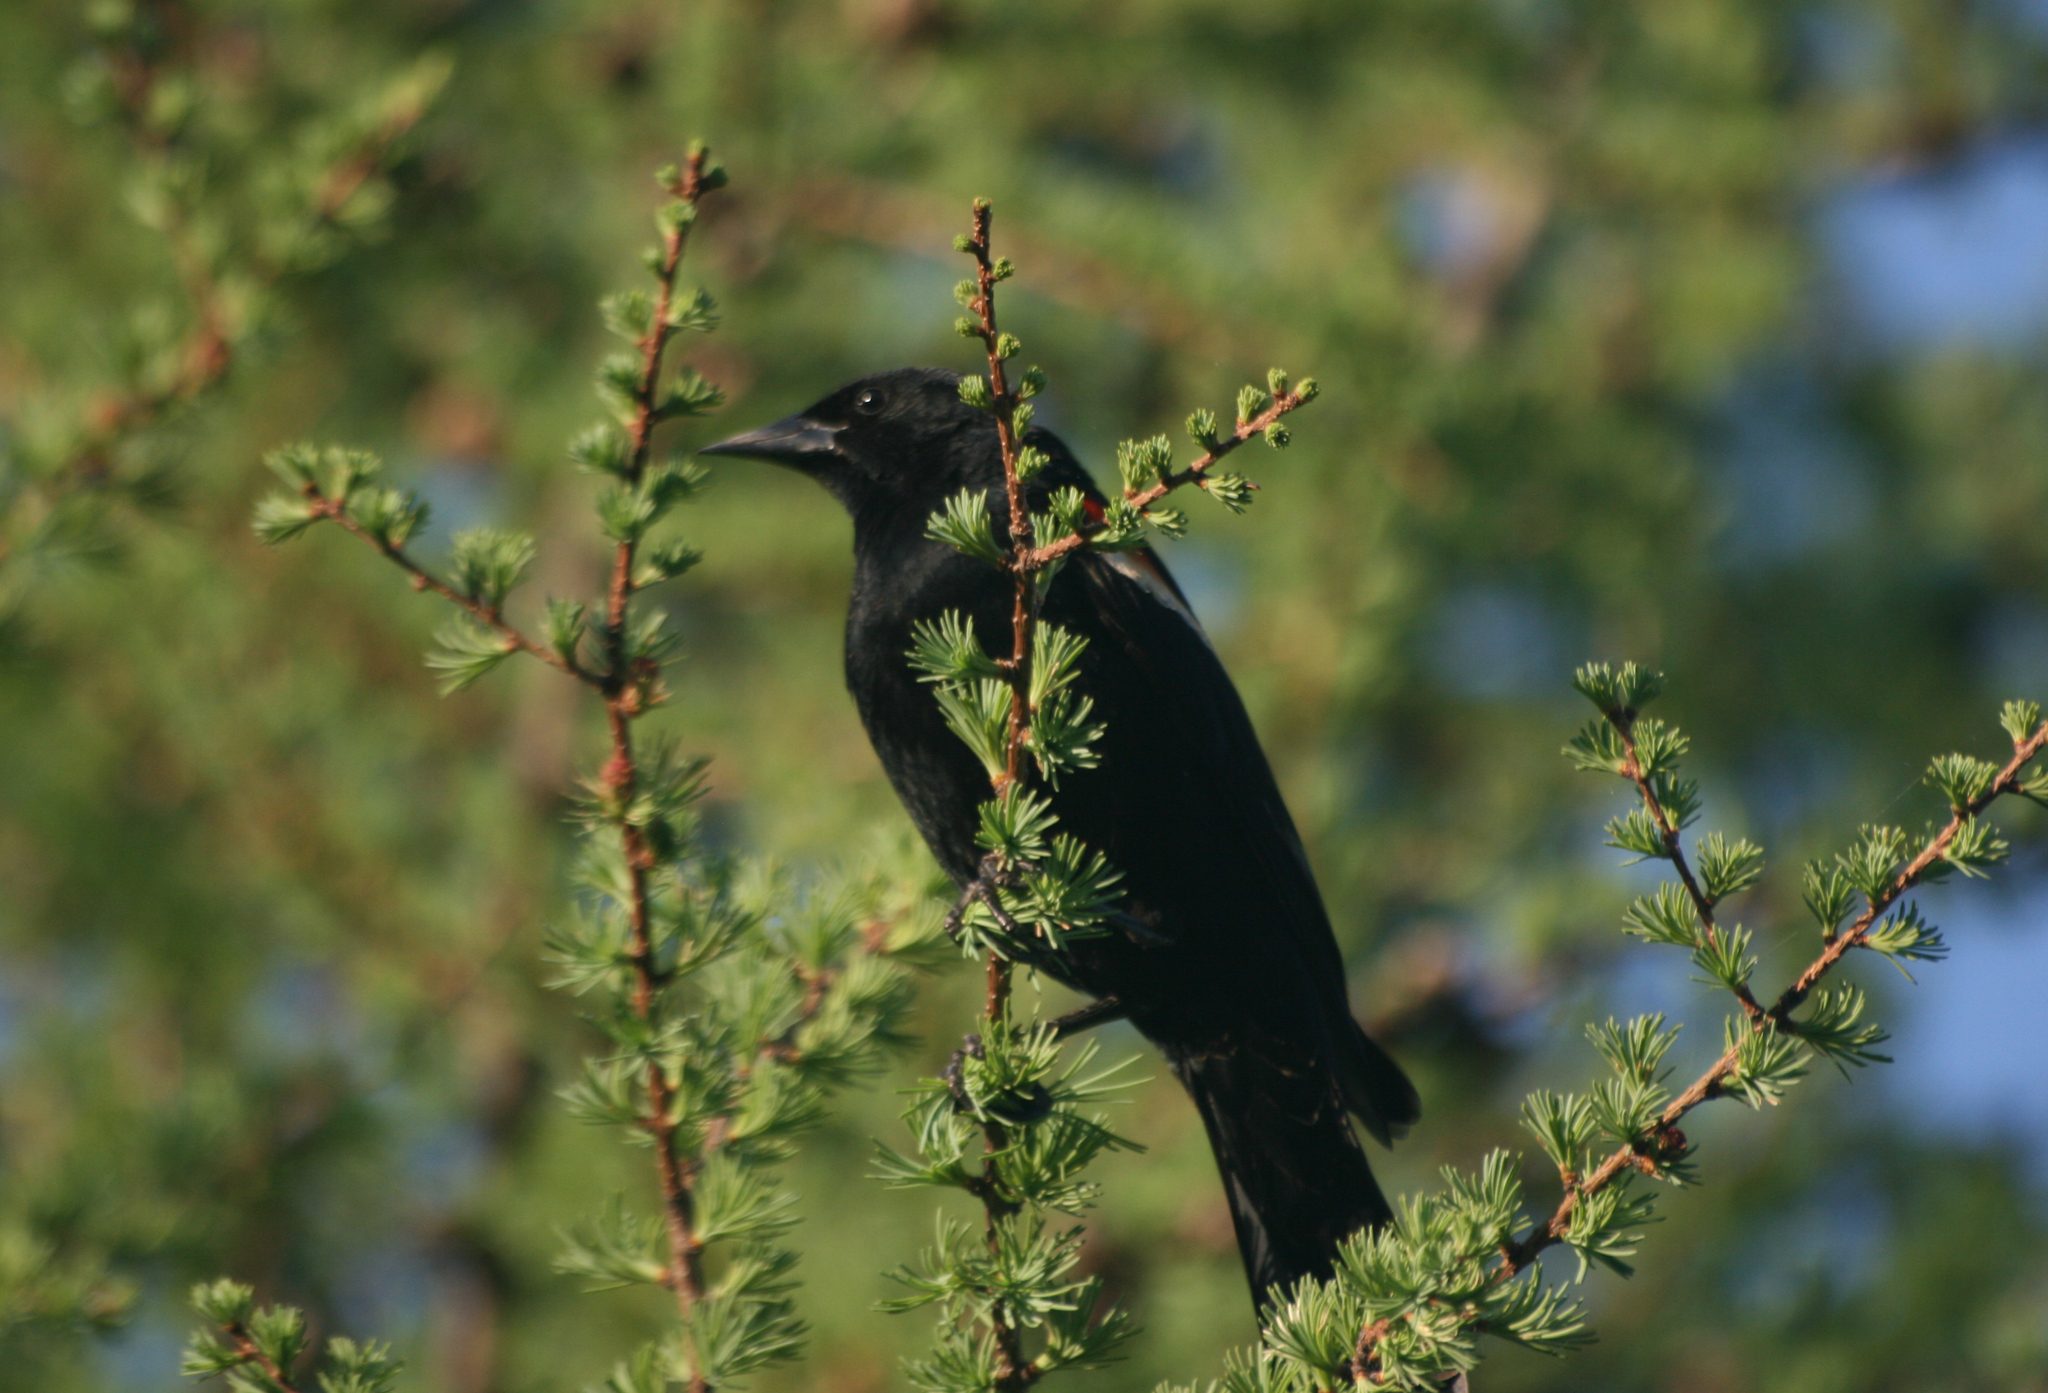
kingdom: Animalia
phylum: Chordata
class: Aves
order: Passeriformes
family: Icteridae
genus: Agelaius
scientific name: Agelaius phoeniceus
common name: Red-winged blackbird
